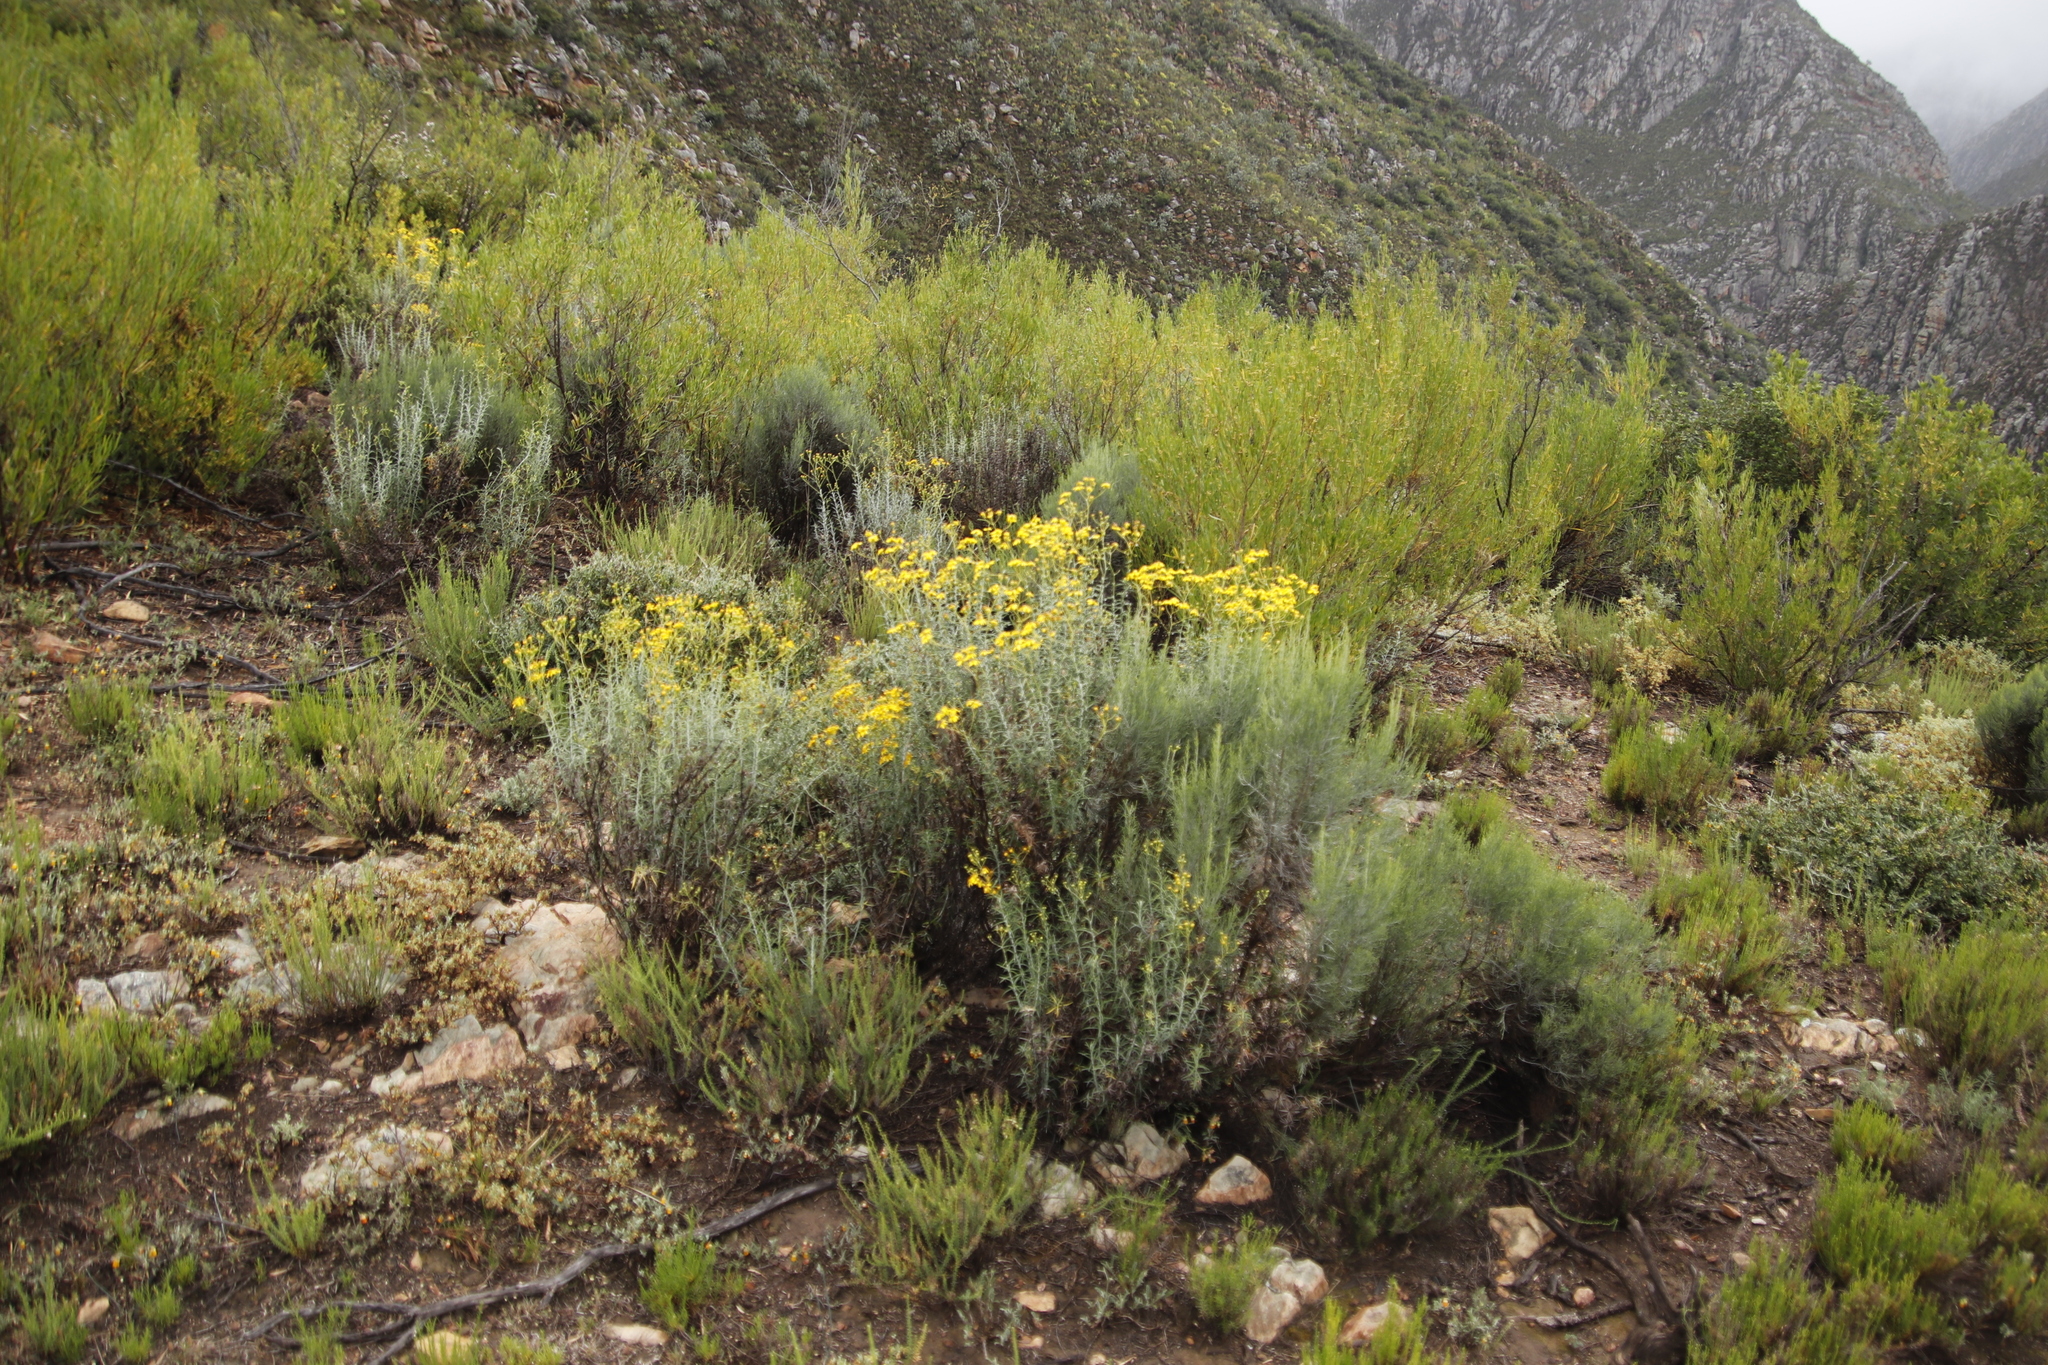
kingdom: Plantae
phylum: Tracheophyta
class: Magnoliopsida
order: Asterales
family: Asteraceae
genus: Dicerothamnus
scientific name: Dicerothamnus rhinocerotis
